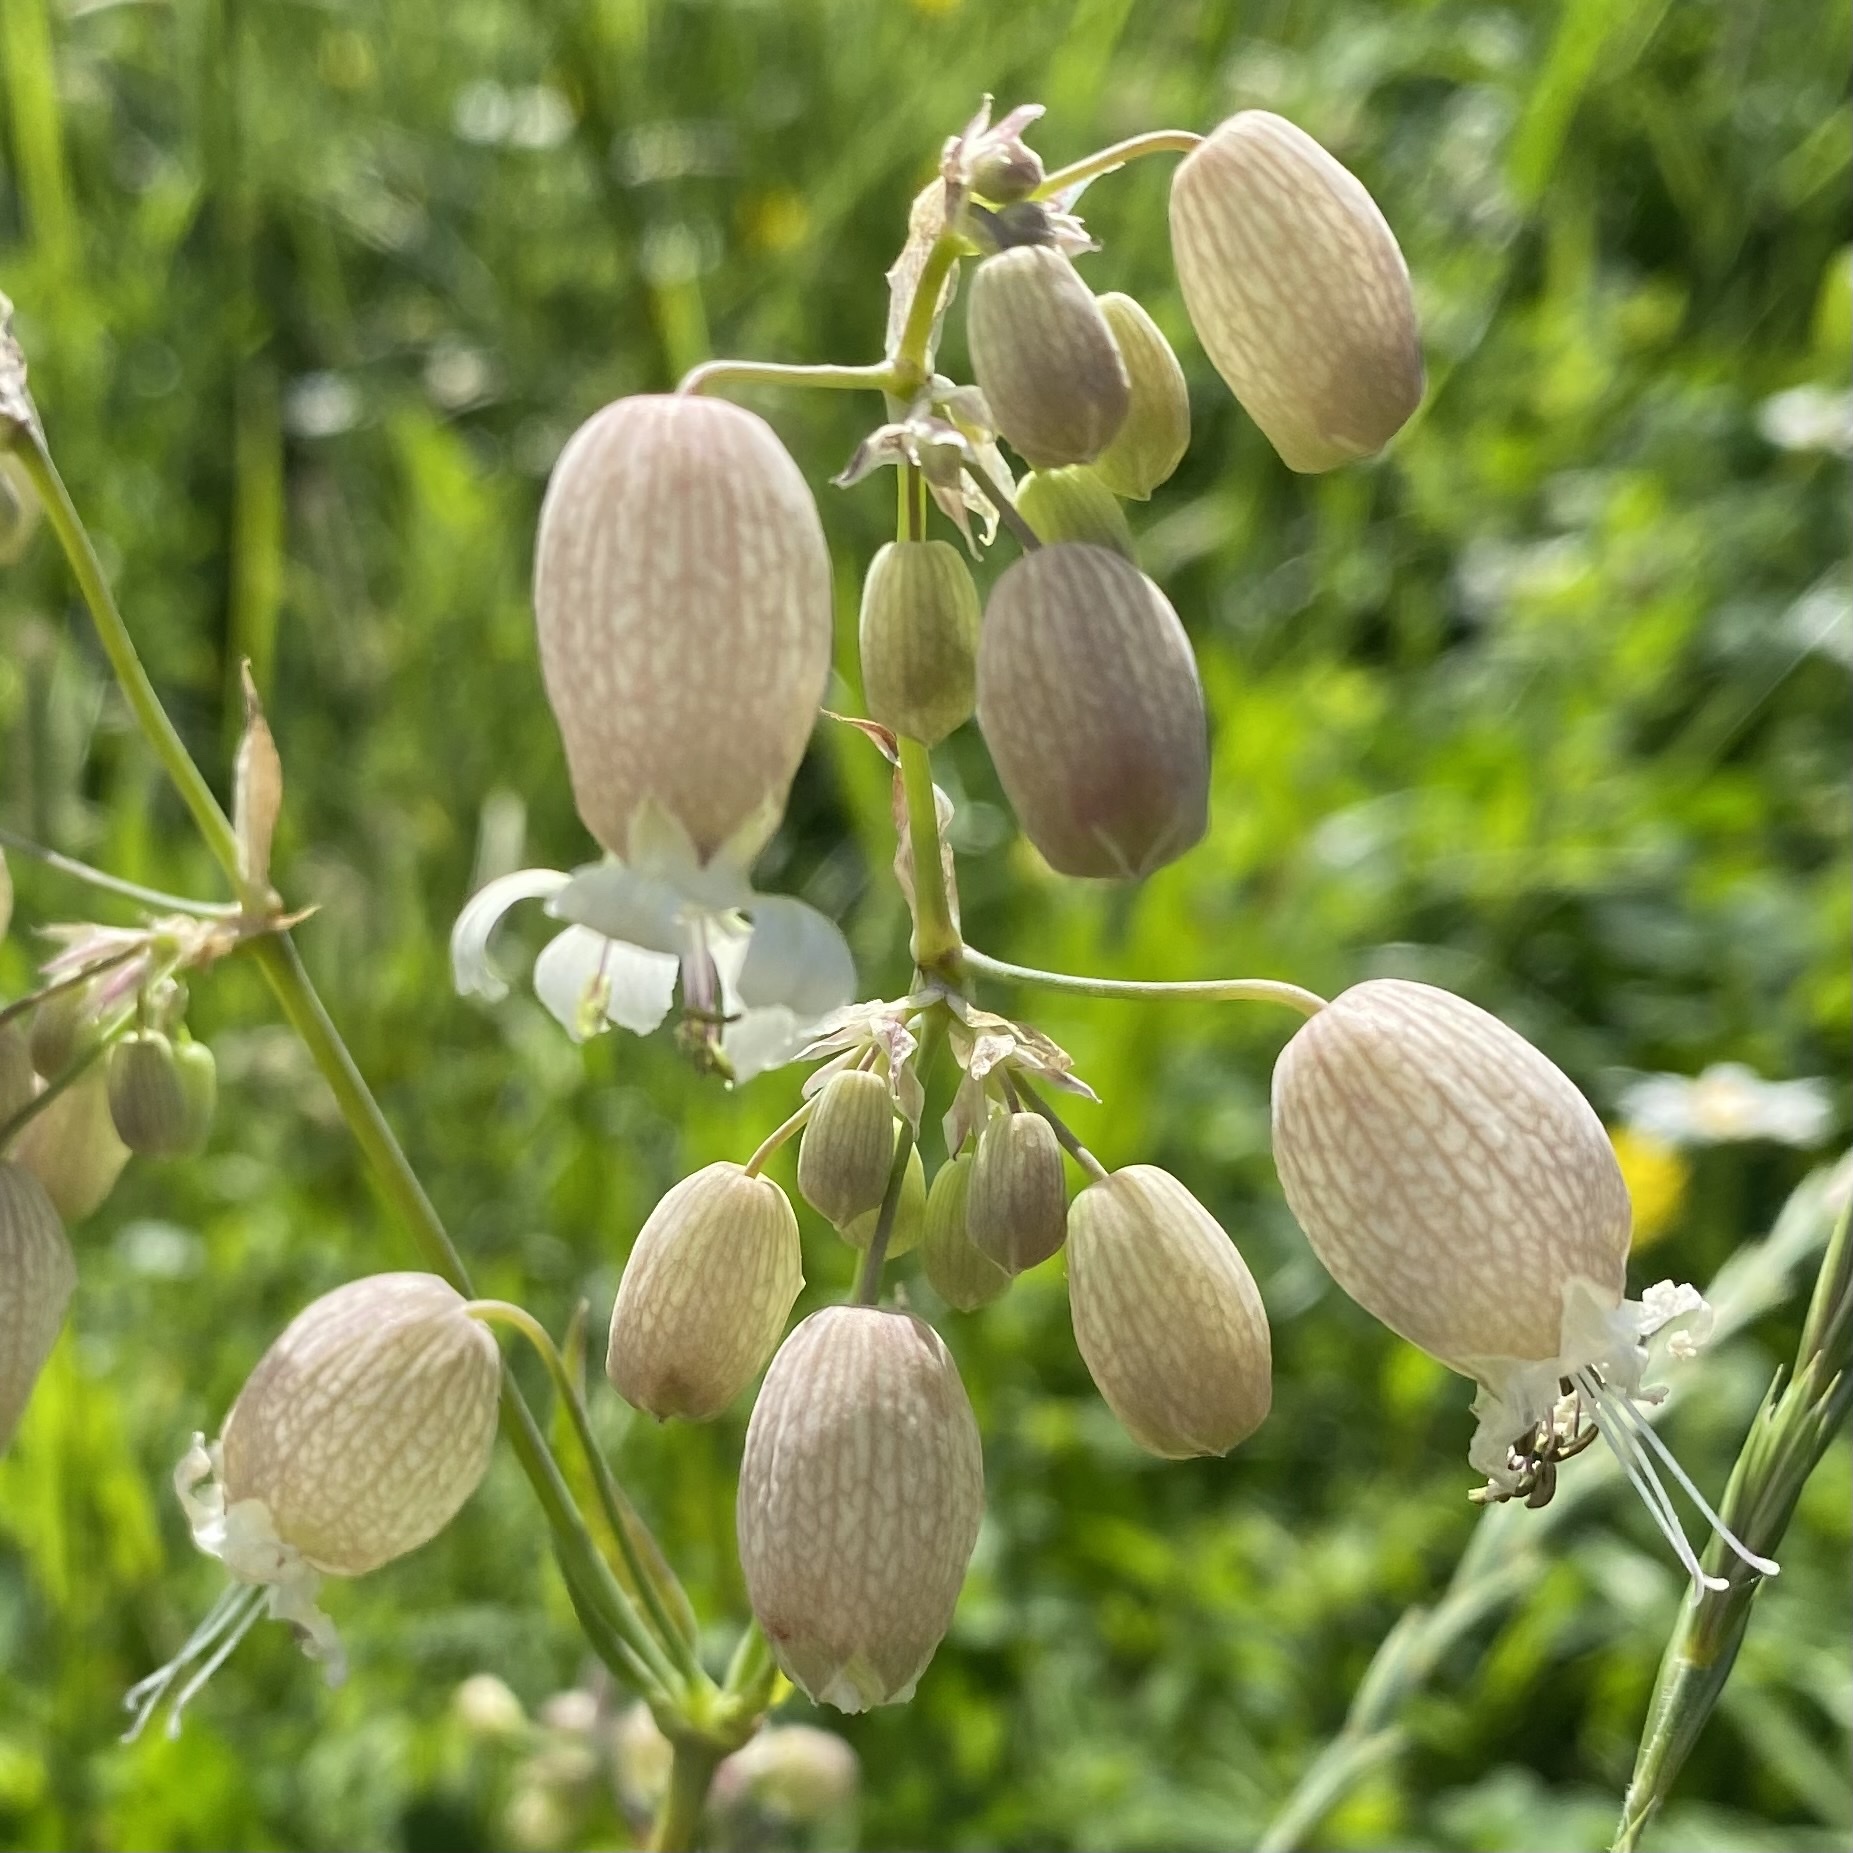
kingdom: Plantae
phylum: Tracheophyta
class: Magnoliopsida
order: Caryophyllales
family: Caryophyllaceae
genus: Silene
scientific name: Silene vulgaris
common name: Bladder campion
